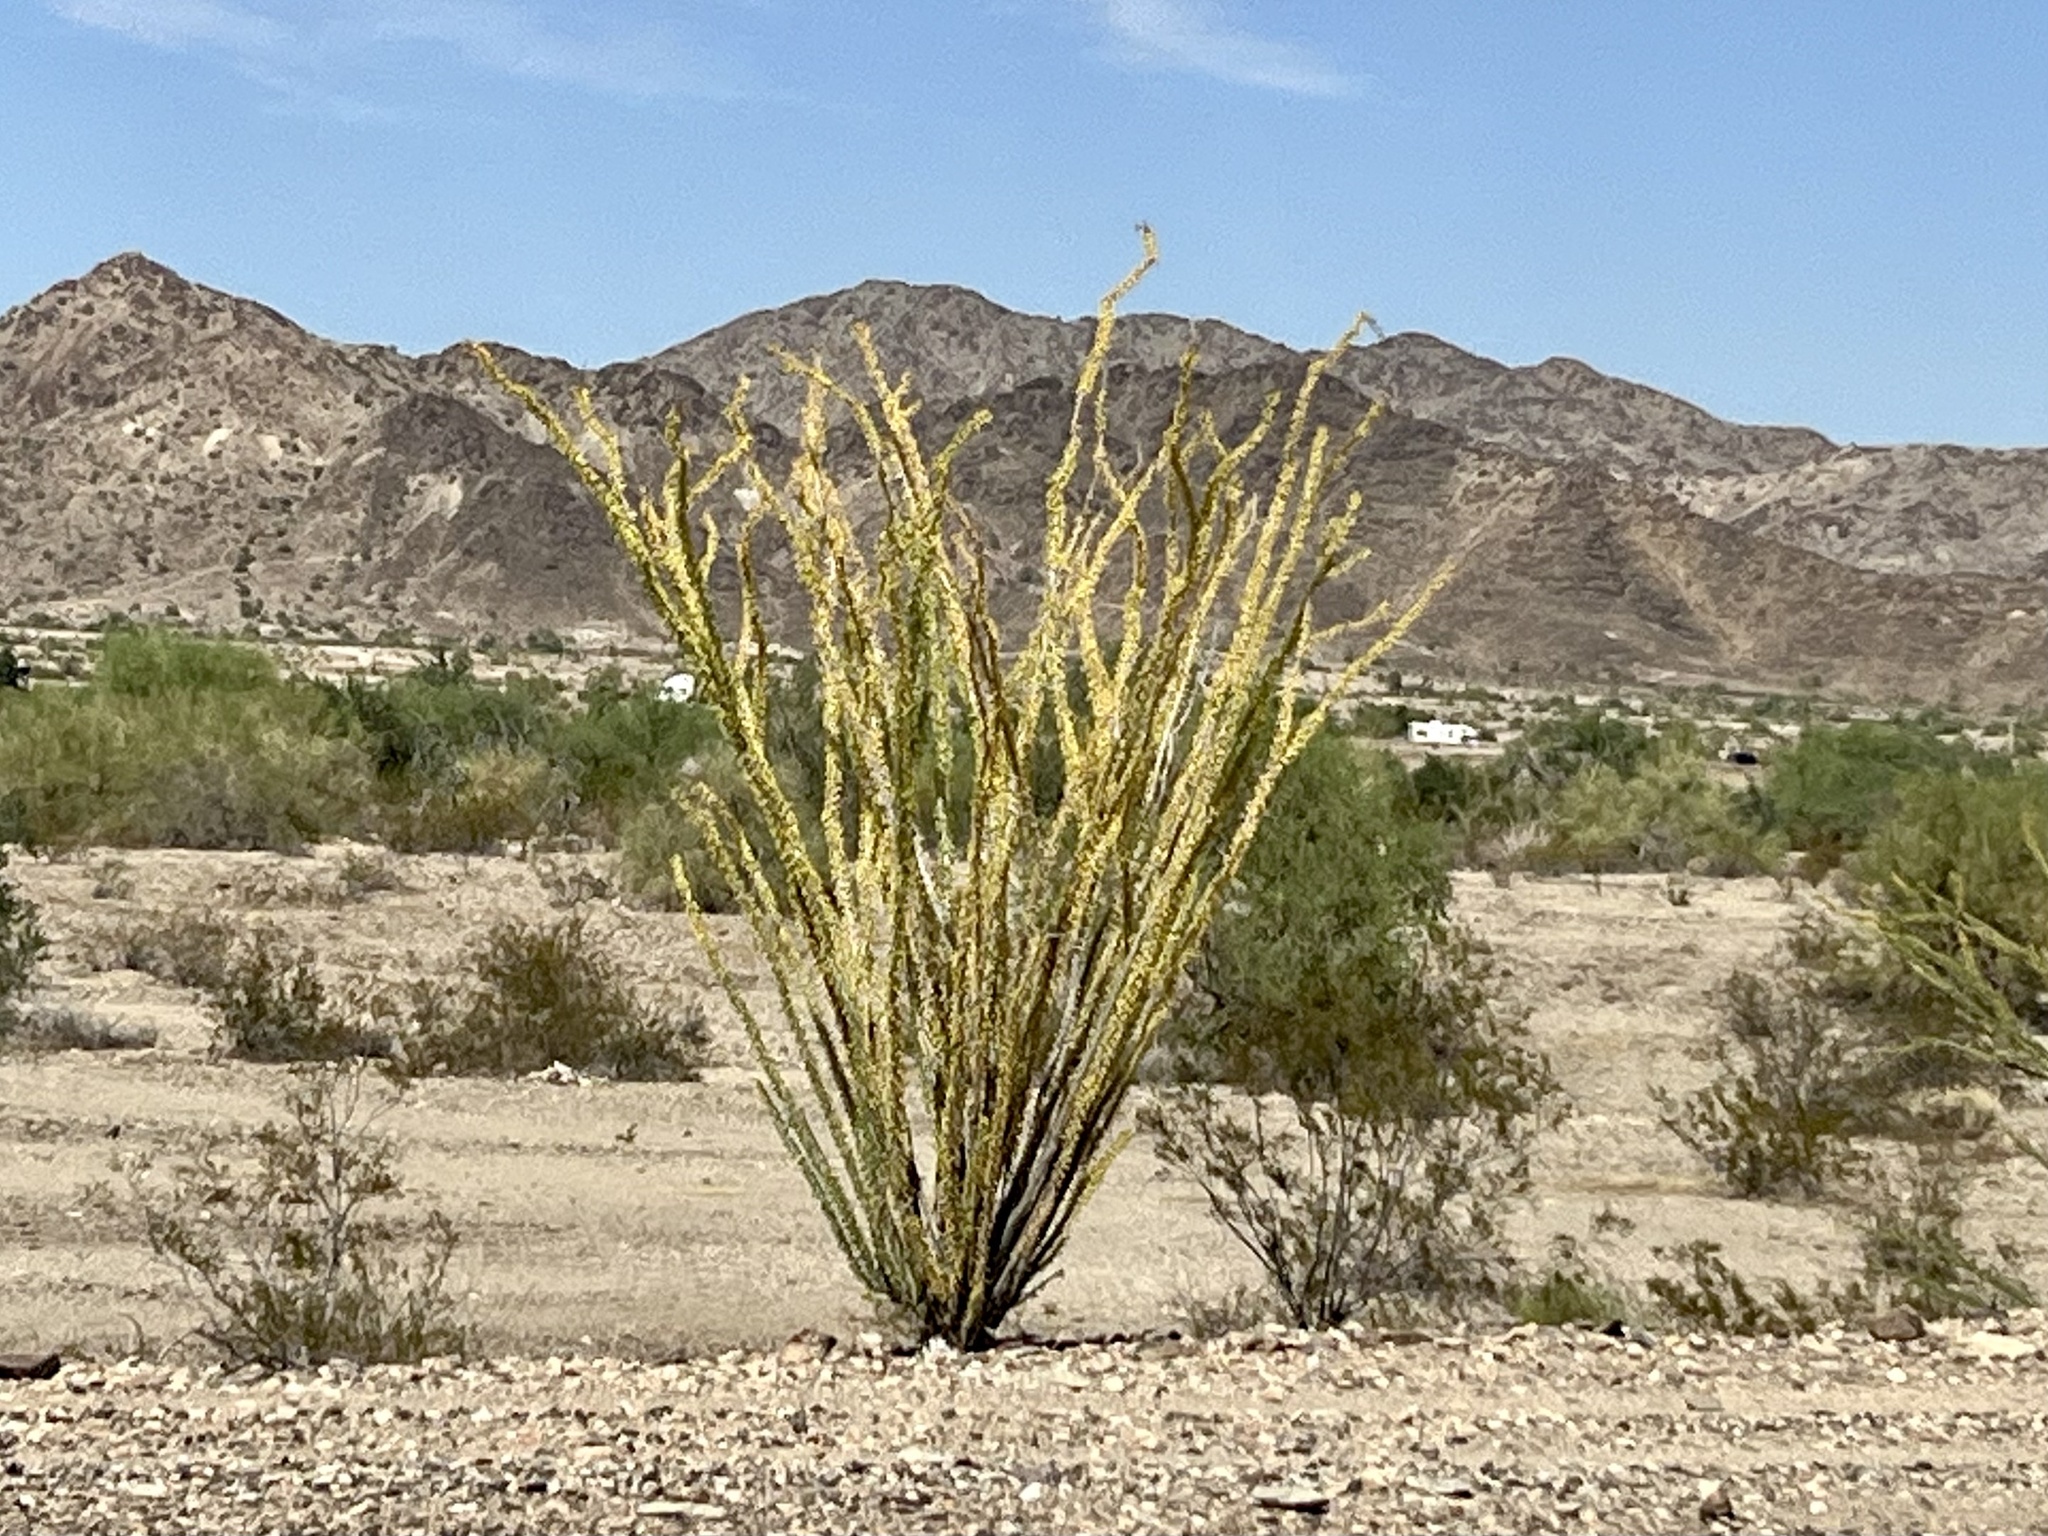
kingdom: Plantae
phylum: Tracheophyta
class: Magnoliopsida
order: Ericales
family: Fouquieriaceae
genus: Fouquieria
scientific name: Fouquieria splendens
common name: Vine-cactus
